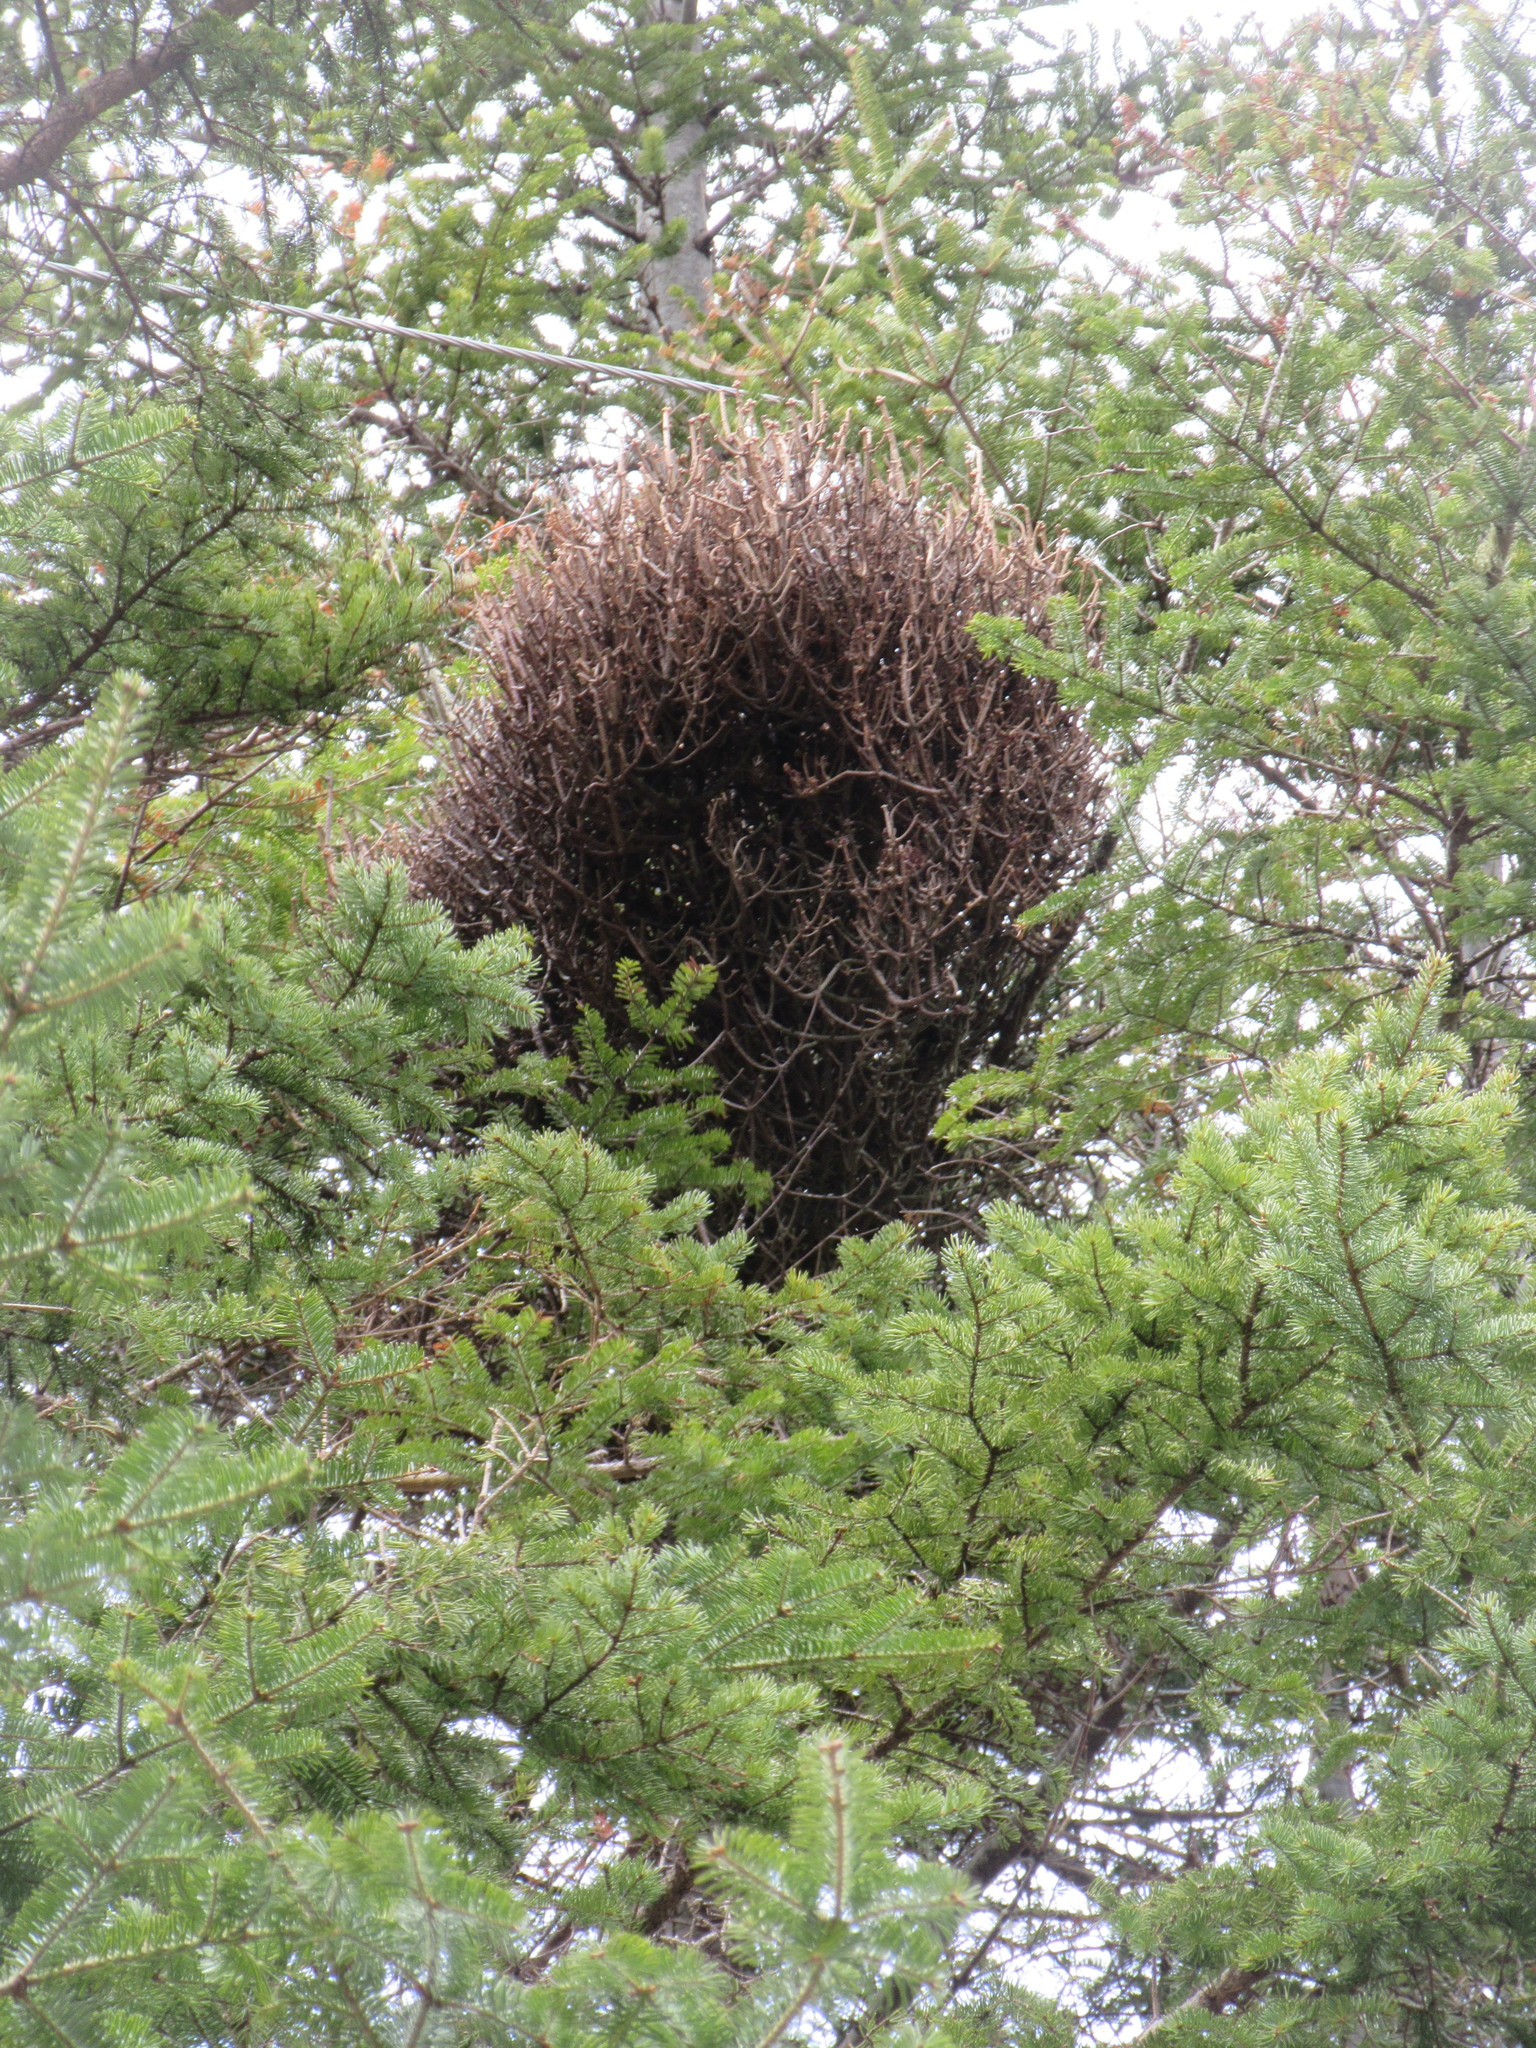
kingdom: Plantae
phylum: Tracheophyta
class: Pinopsida
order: Pinales
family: Pinaceae
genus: Abies
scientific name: Abies balsamea
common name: Balsam fir
